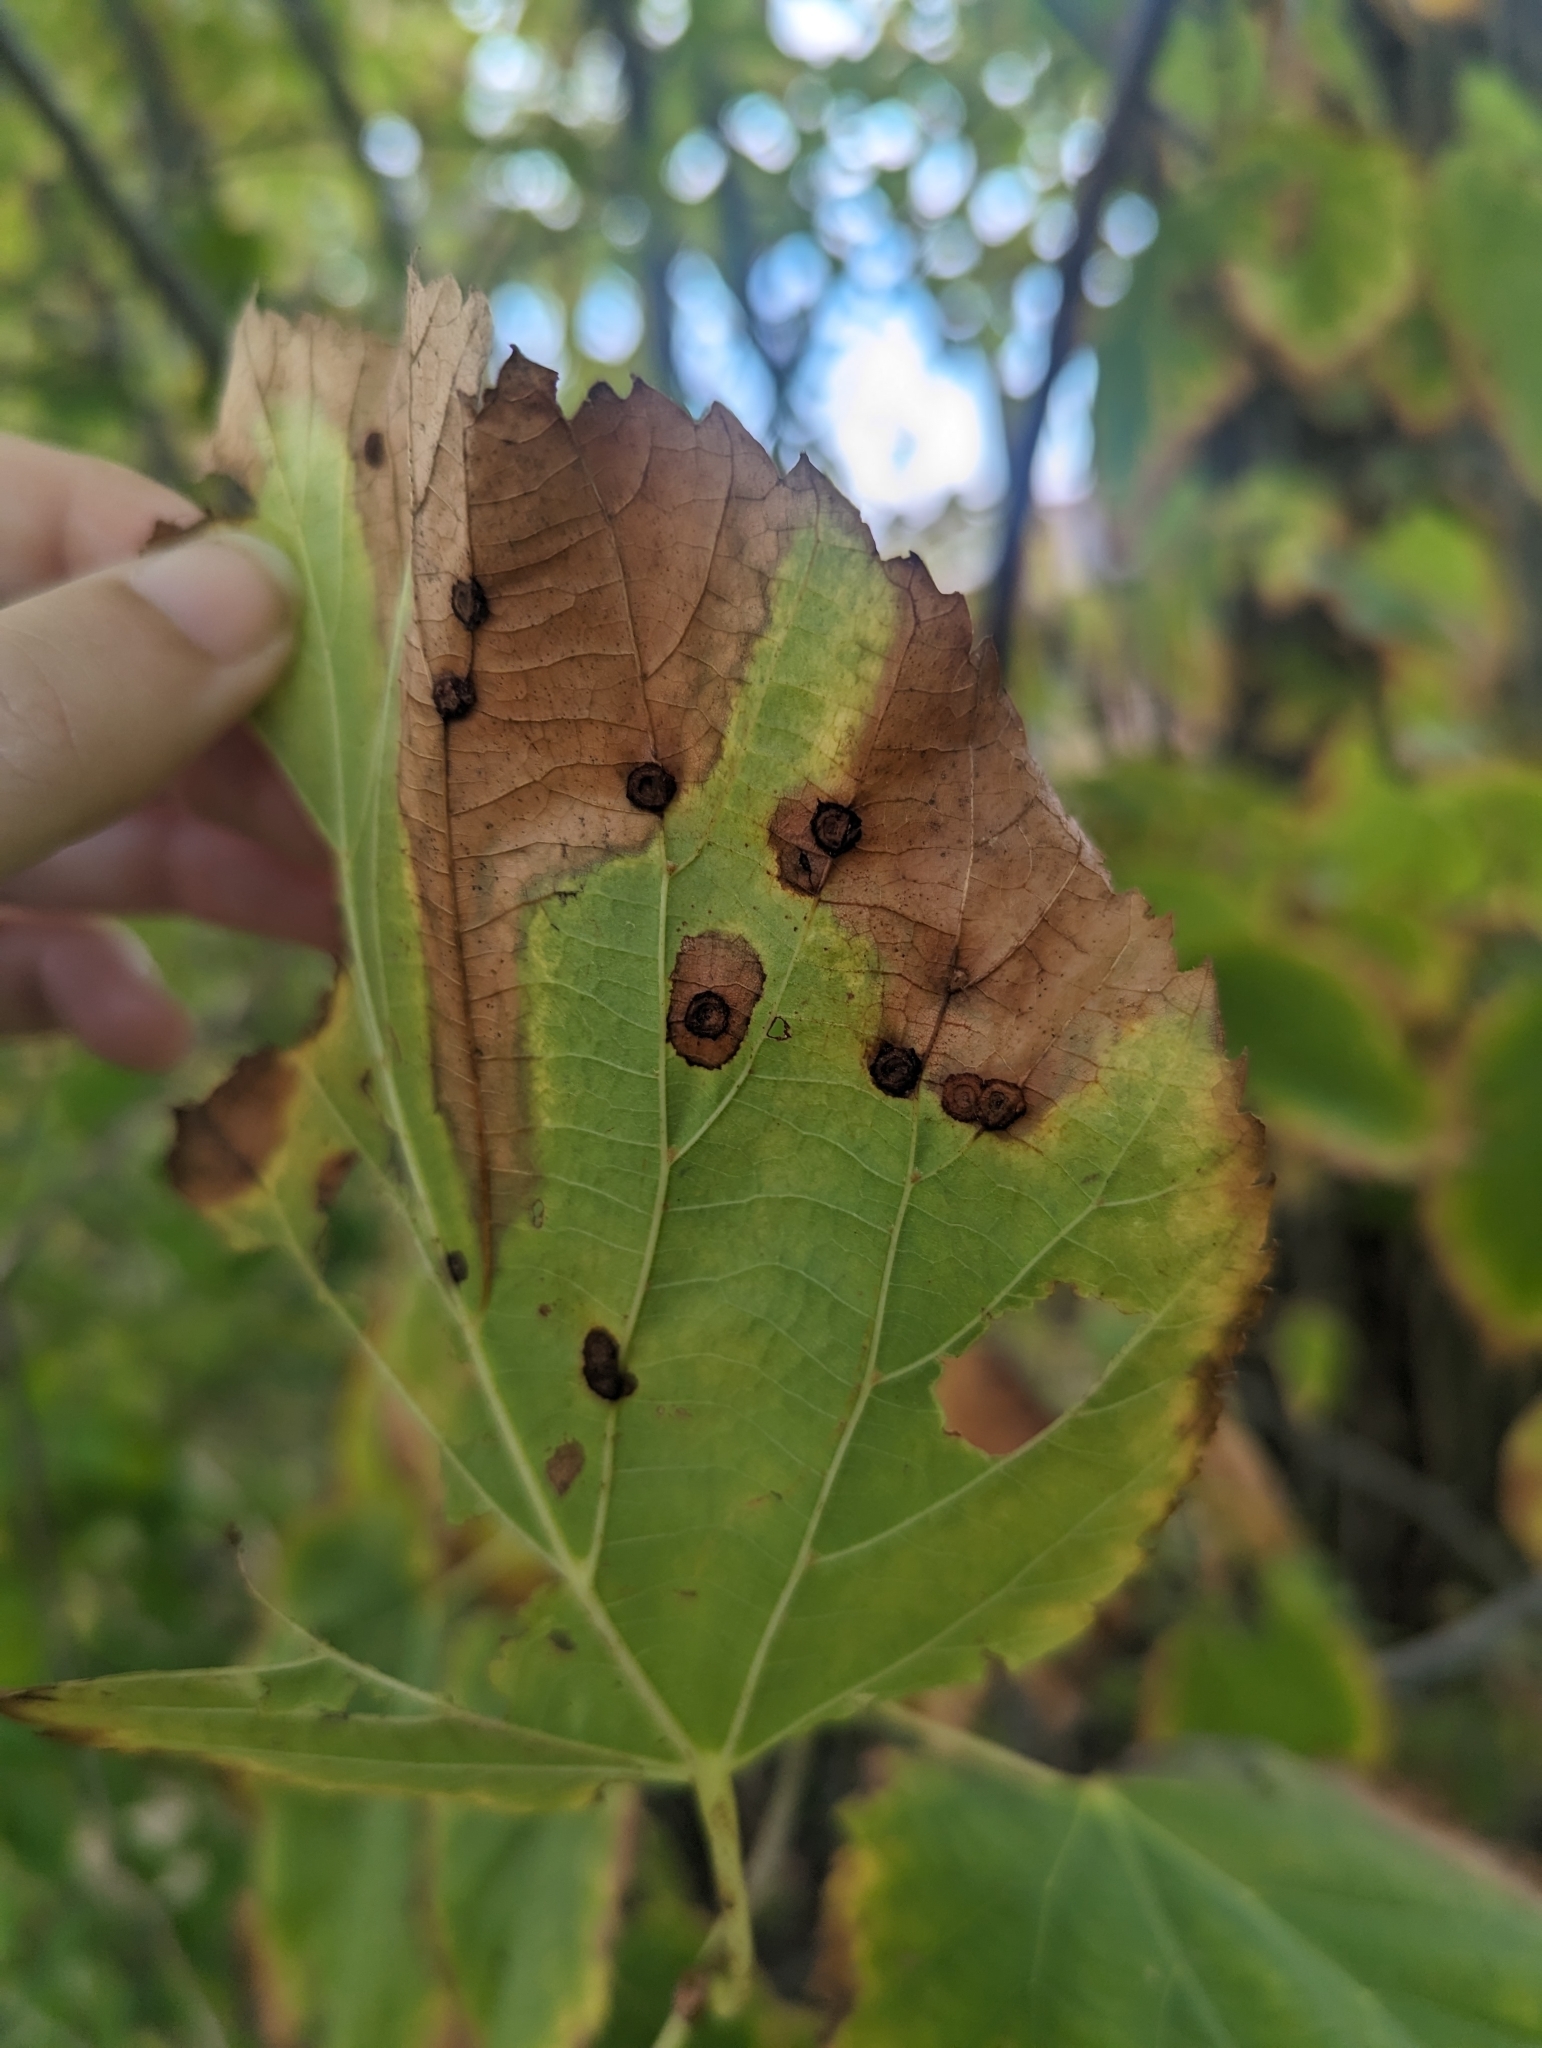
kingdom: Animalia
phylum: Arthropoda
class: Insecta
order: Diptera
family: Cecidomyiidae
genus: Contarinia
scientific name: Contarinia verrucicola
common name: Linden wart gall midge
